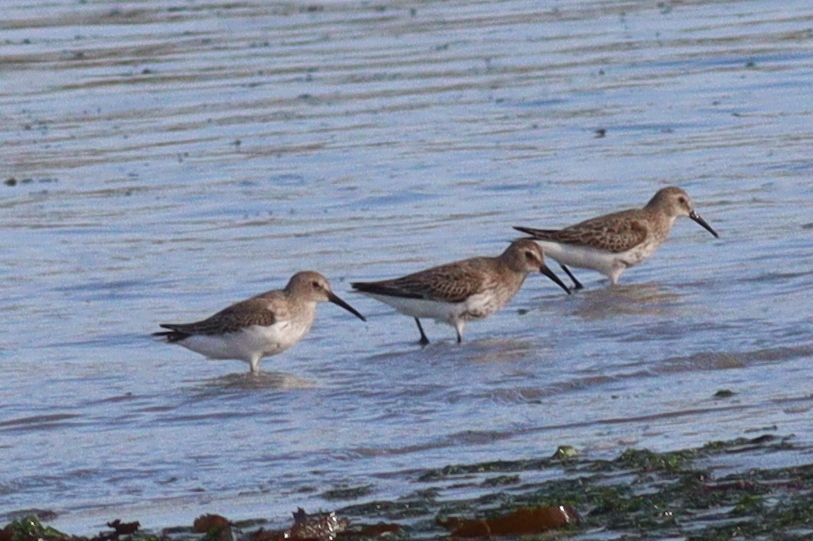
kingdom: Animalia
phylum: Chordata
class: Aves
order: Charadriiformes
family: Scolopacidae
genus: Calidris
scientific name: Calidris alpina
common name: Dunlin
